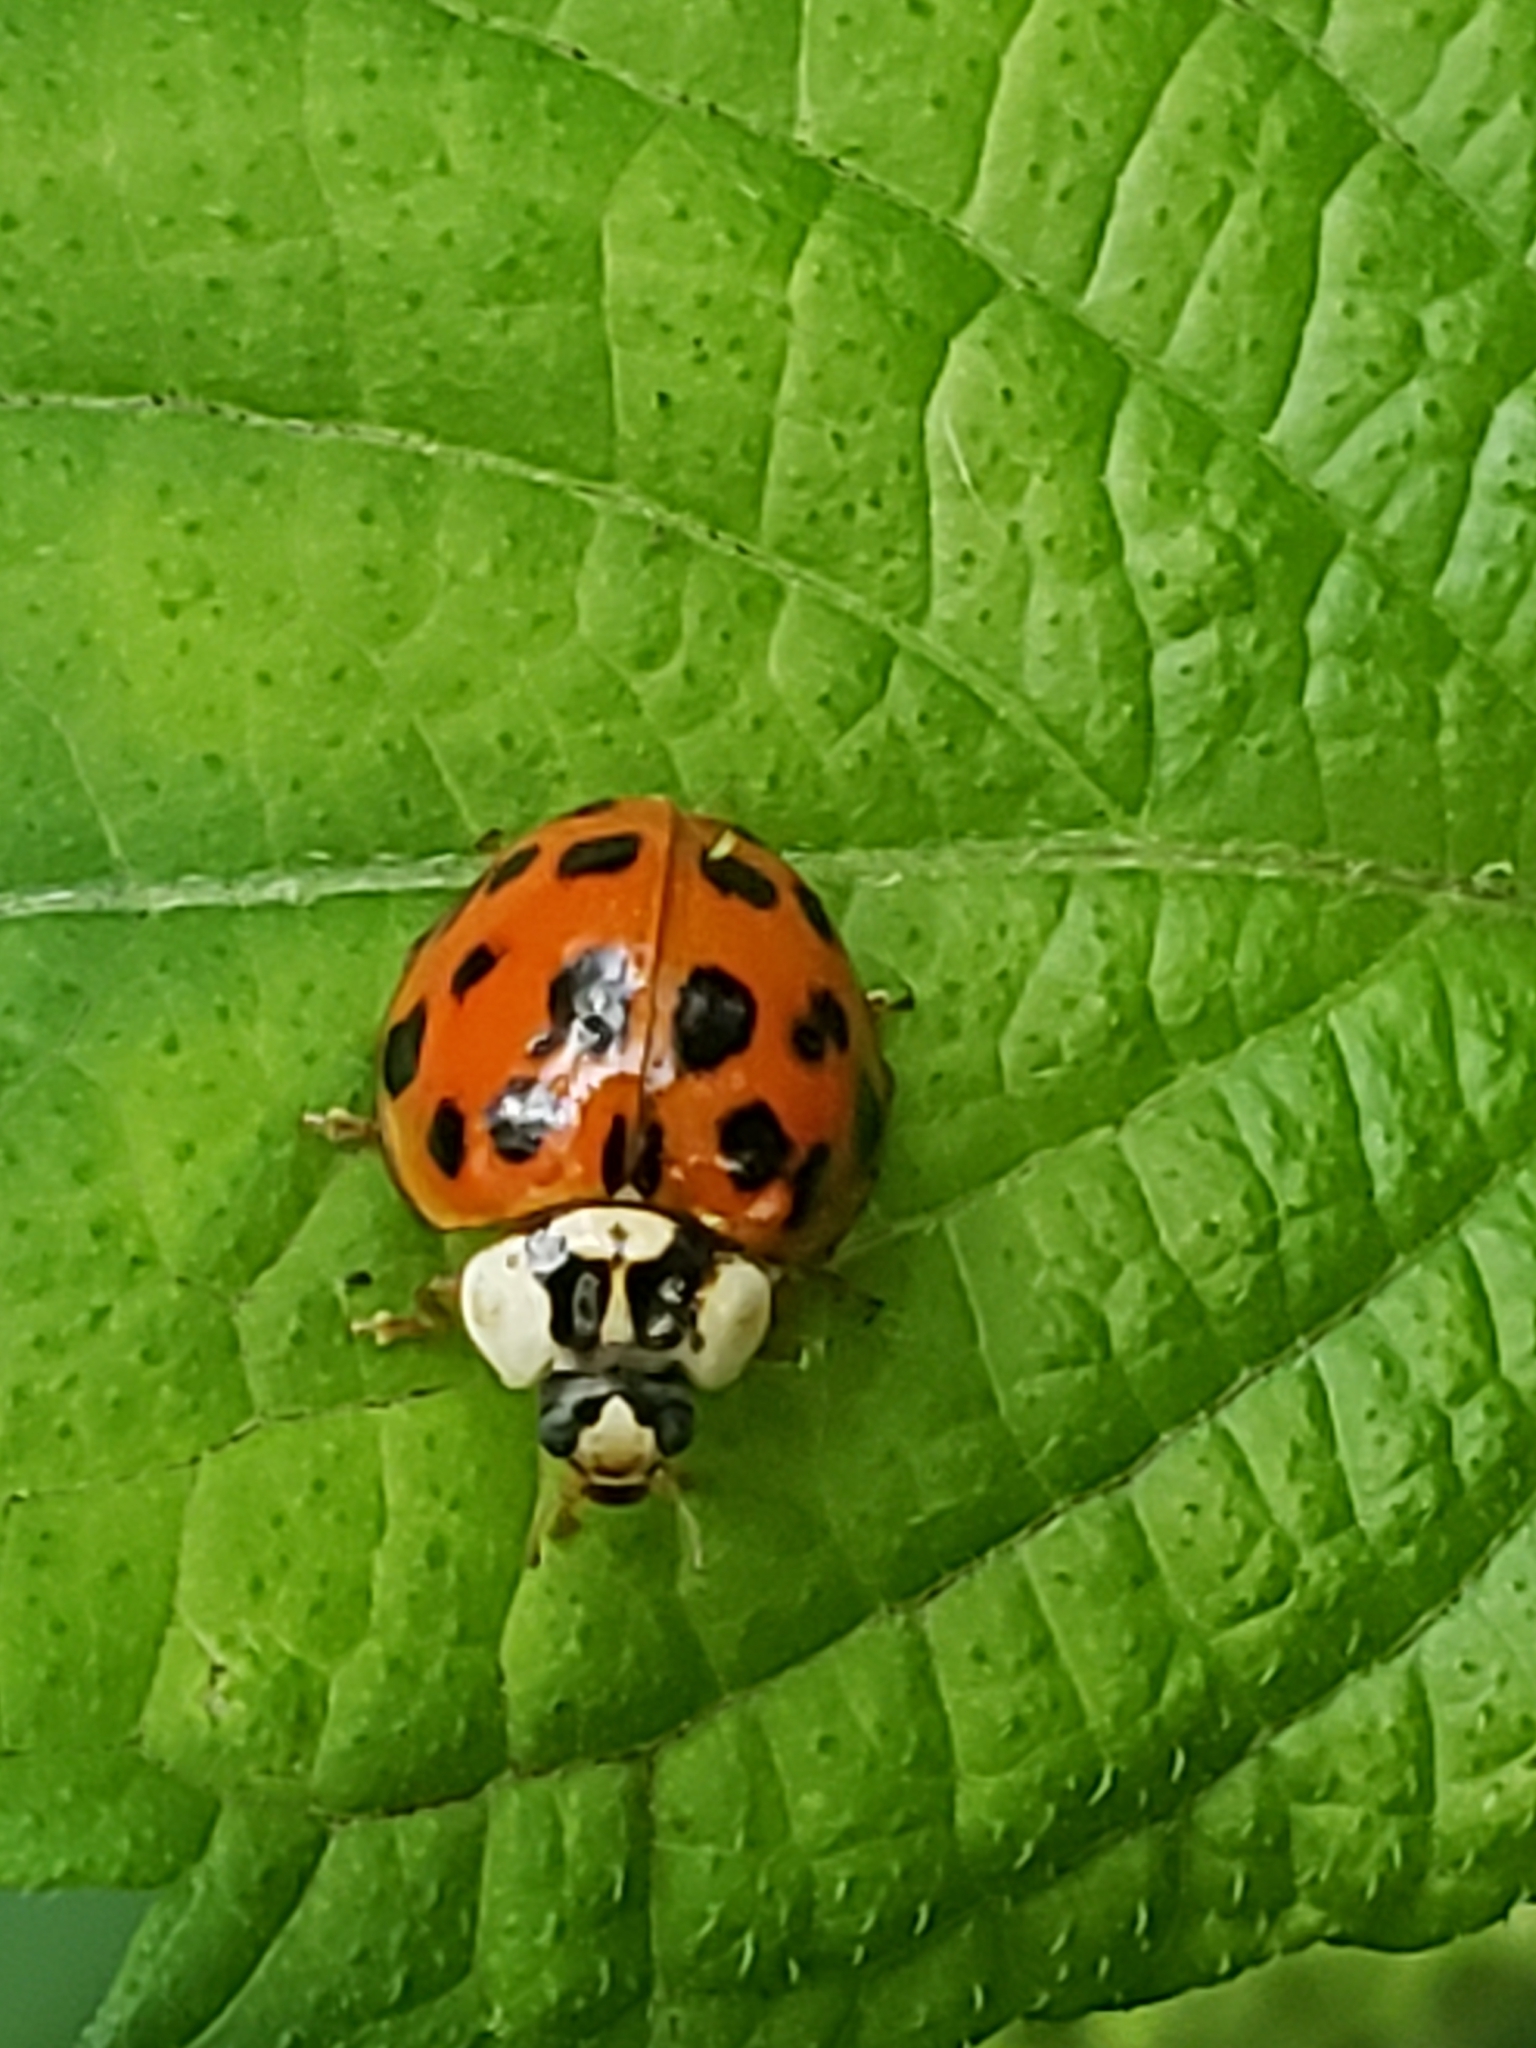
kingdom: Animalia
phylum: Arthropoda
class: Insecta
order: Coleoptera
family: Coccinellidae
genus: Harmonia
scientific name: Harmonia axyridis
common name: Harlequin ladybird
